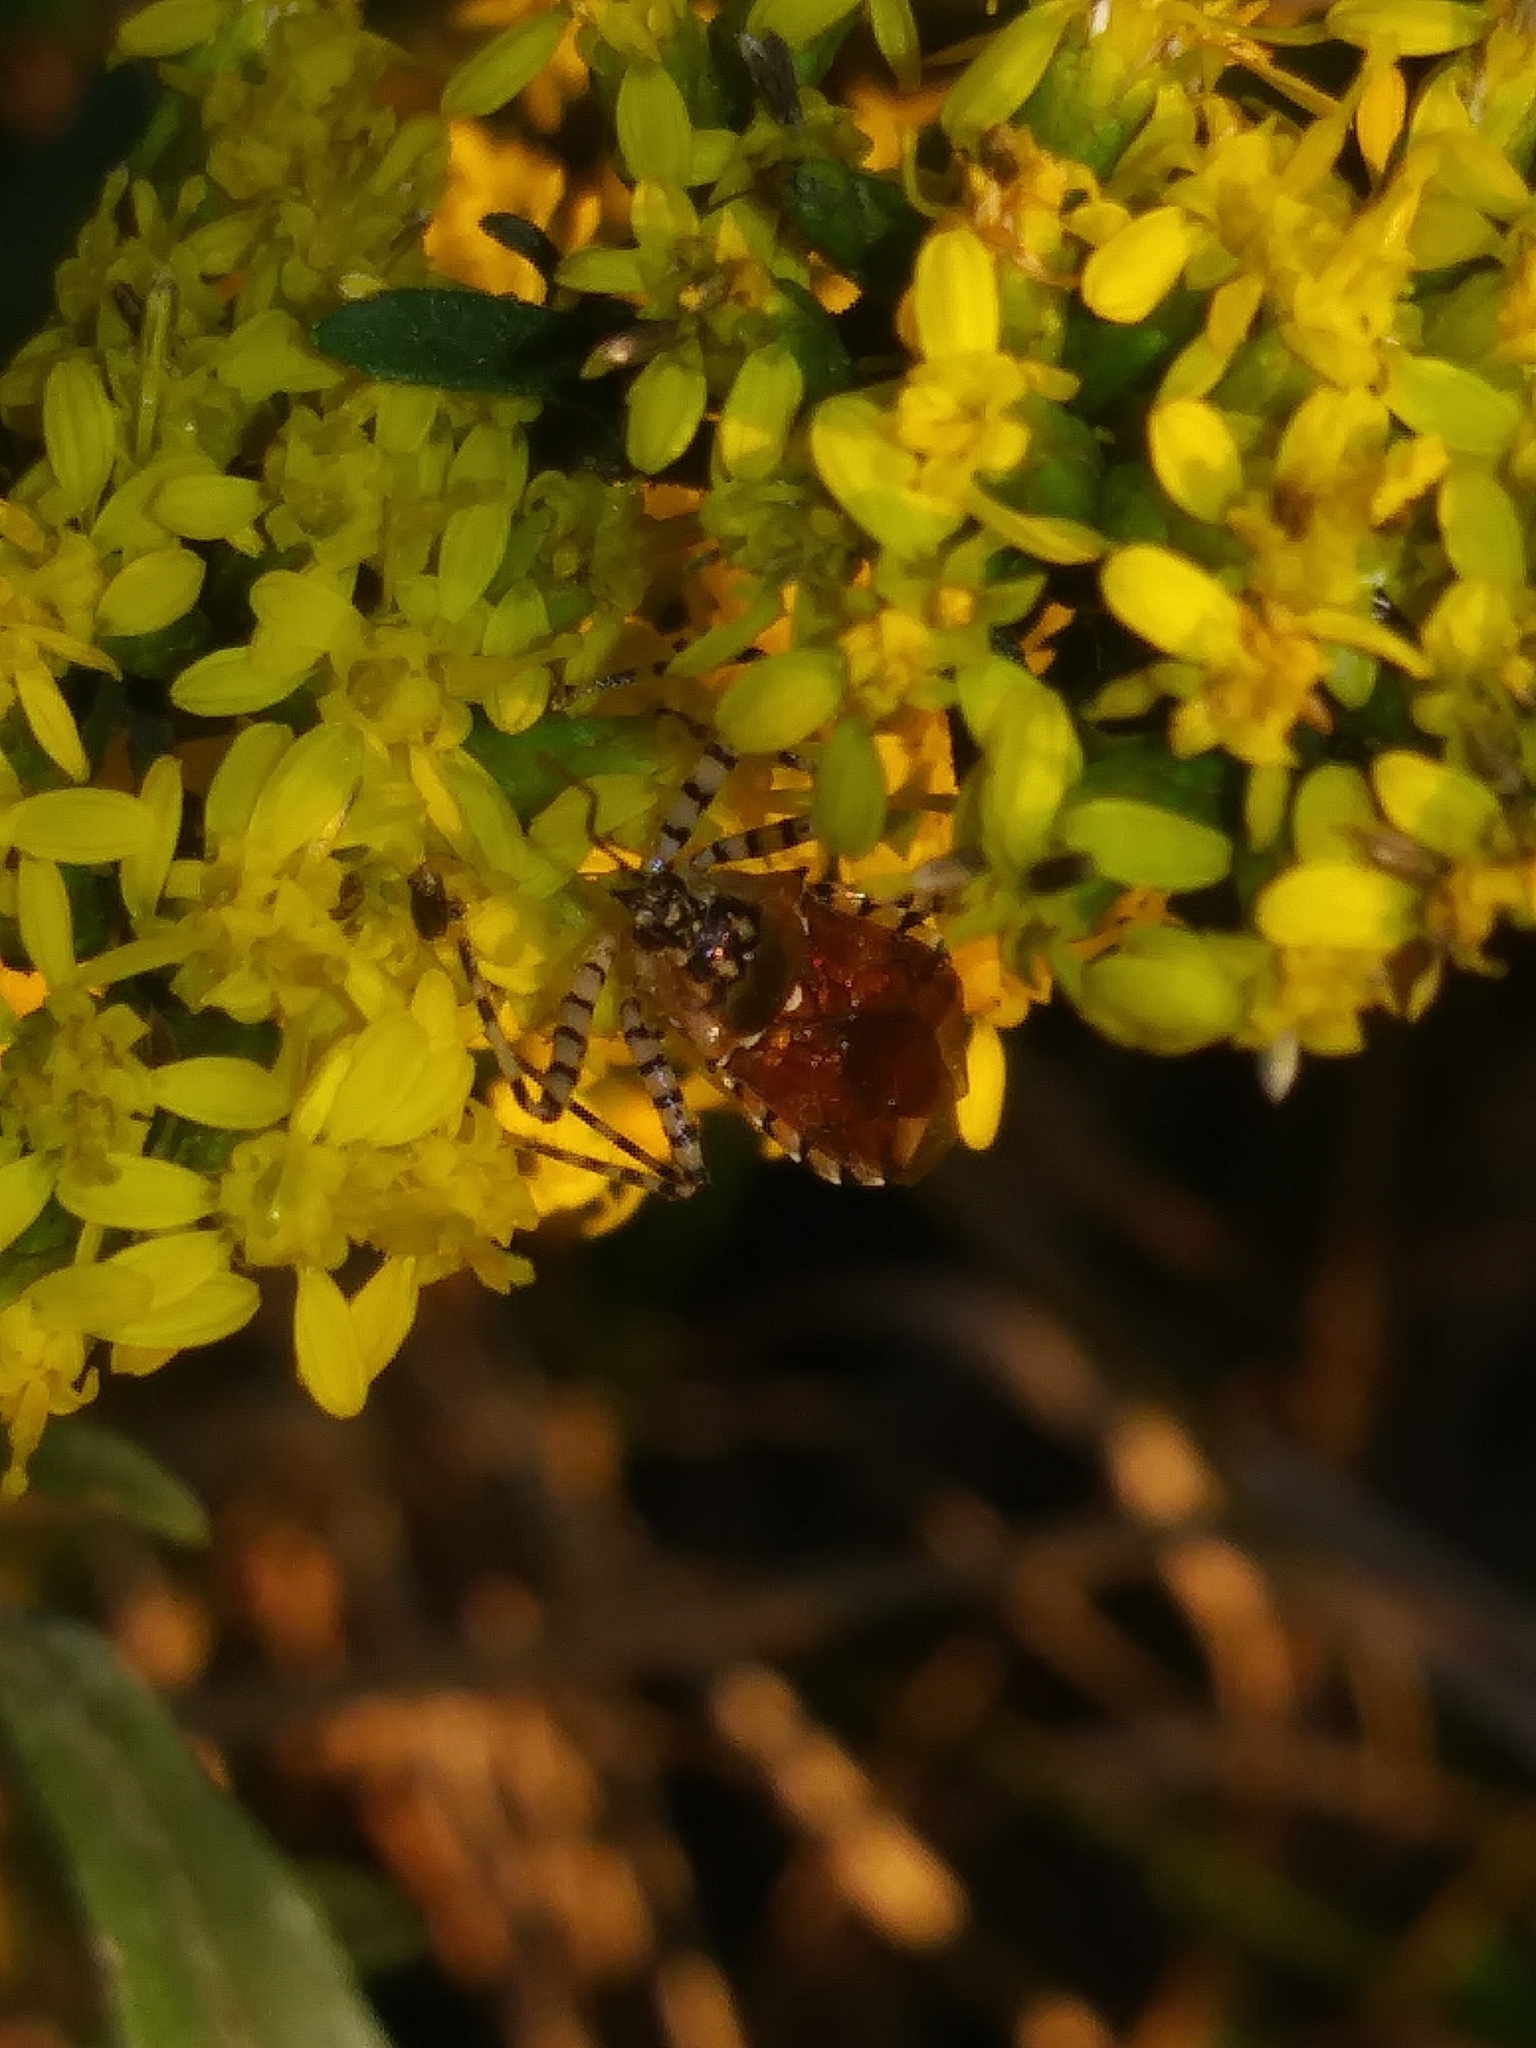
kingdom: Animalia
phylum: Arthropoda
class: Insecta
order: Hemiptera
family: Reduviidae
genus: Pselliopus
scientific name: Pselliopus cinctus
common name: Ringed assassin bug
